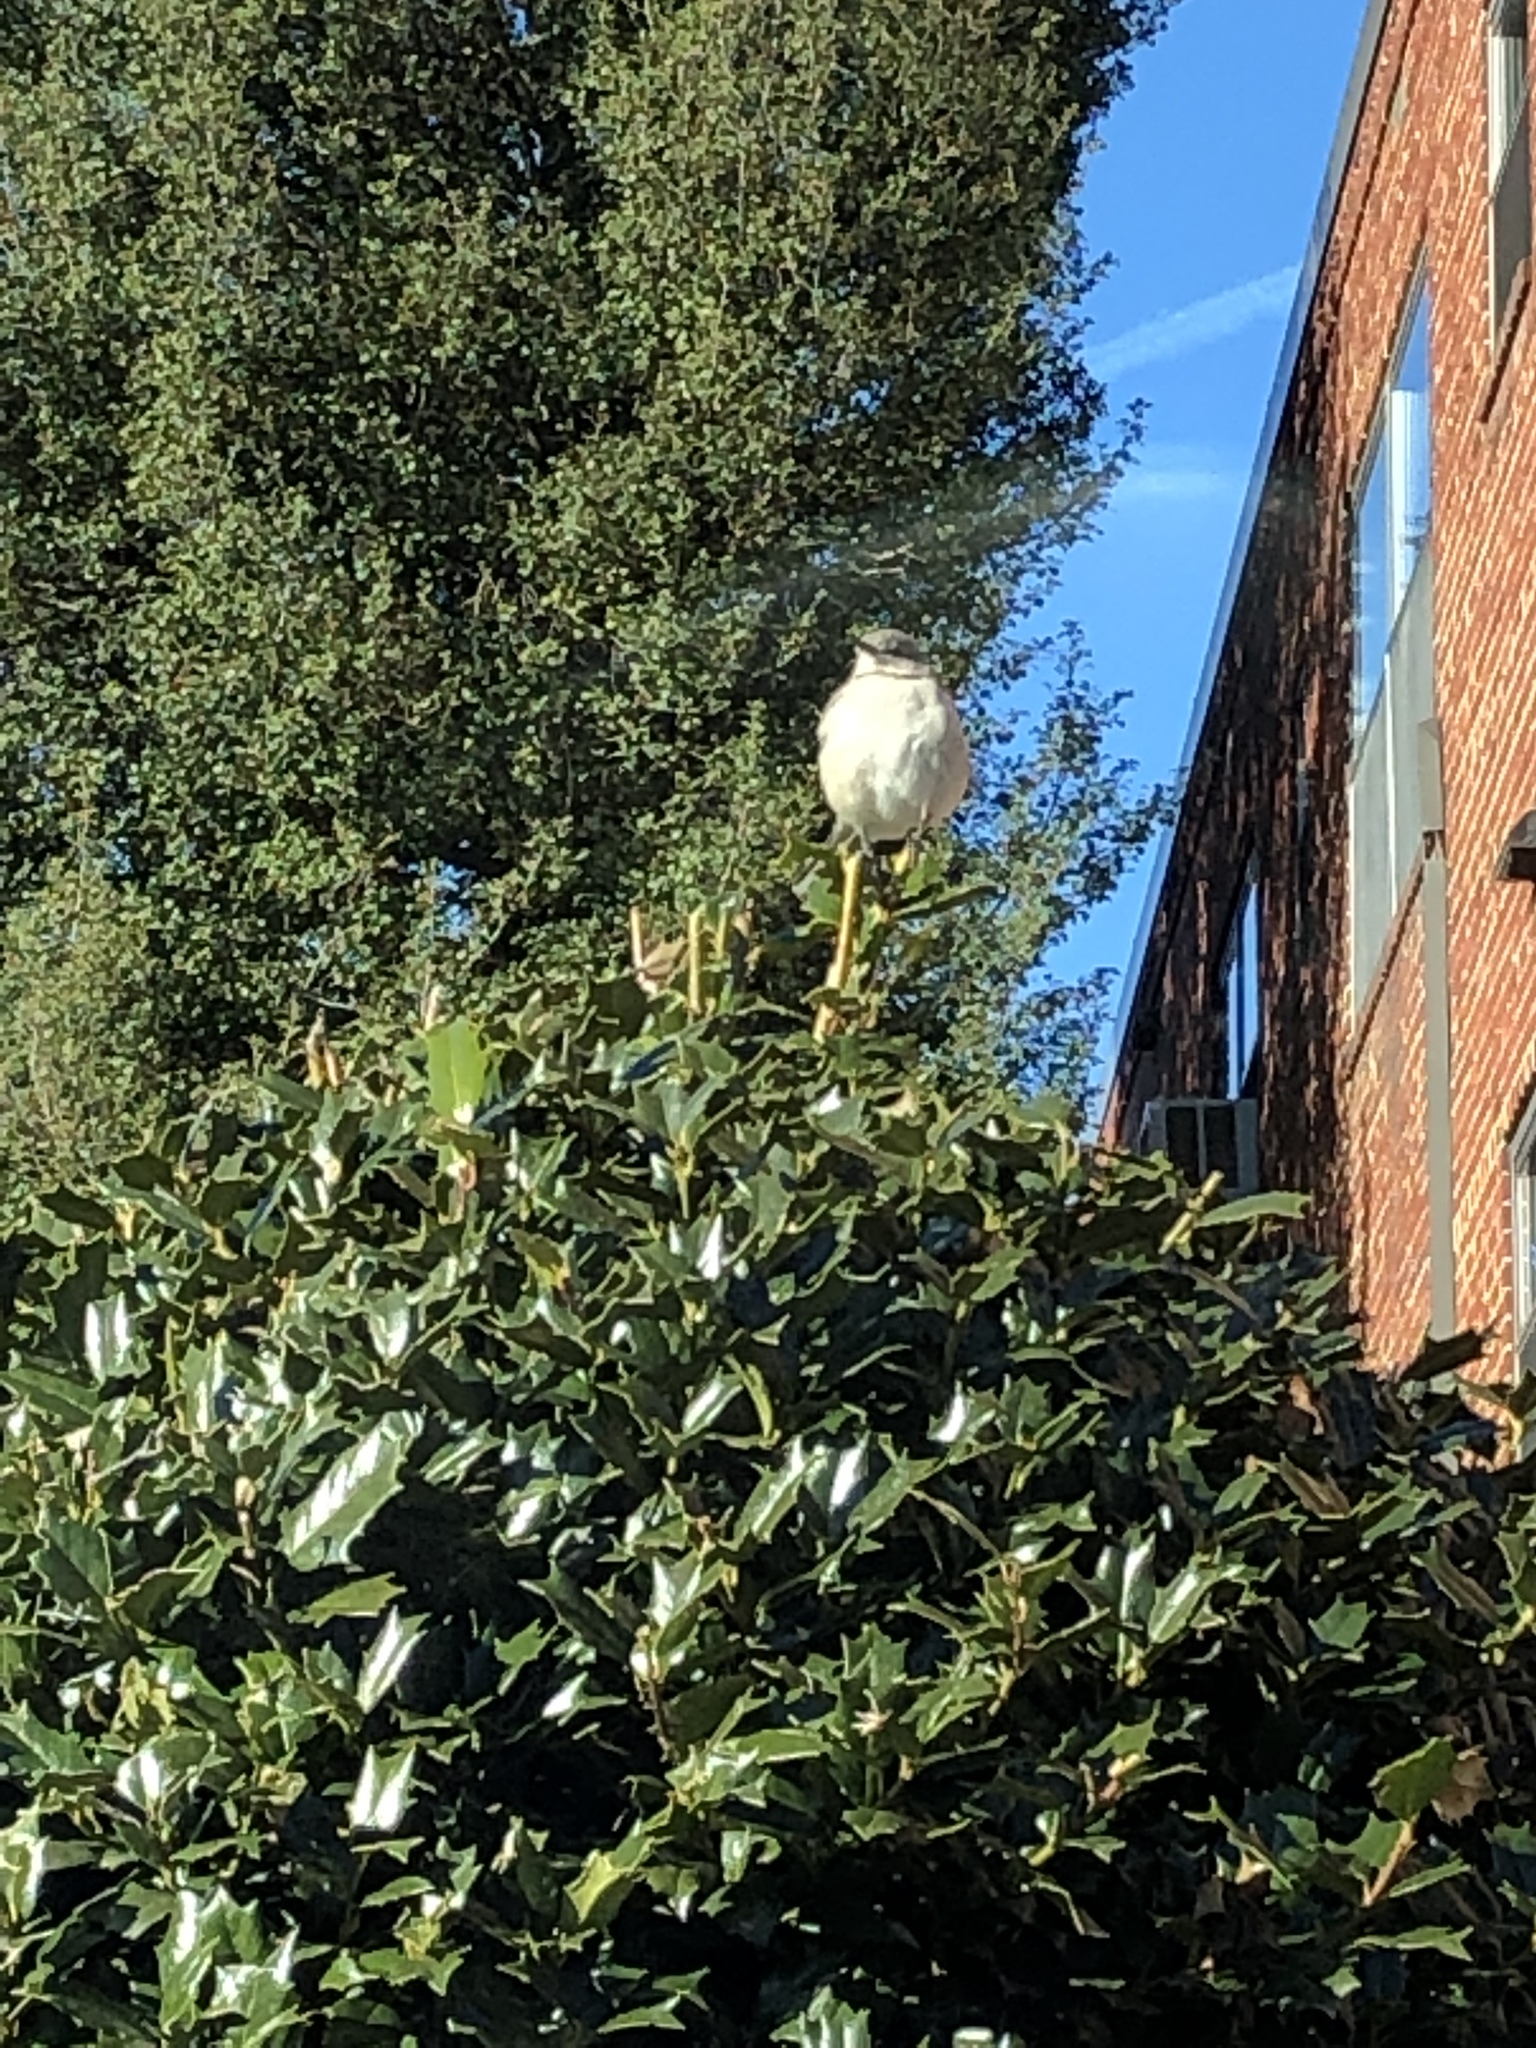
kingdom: Animalia
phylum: Chordata
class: Aves
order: Passeriformes
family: Mimidae
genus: Mimus
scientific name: Mimus polyglottos
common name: Northern mockingbird
